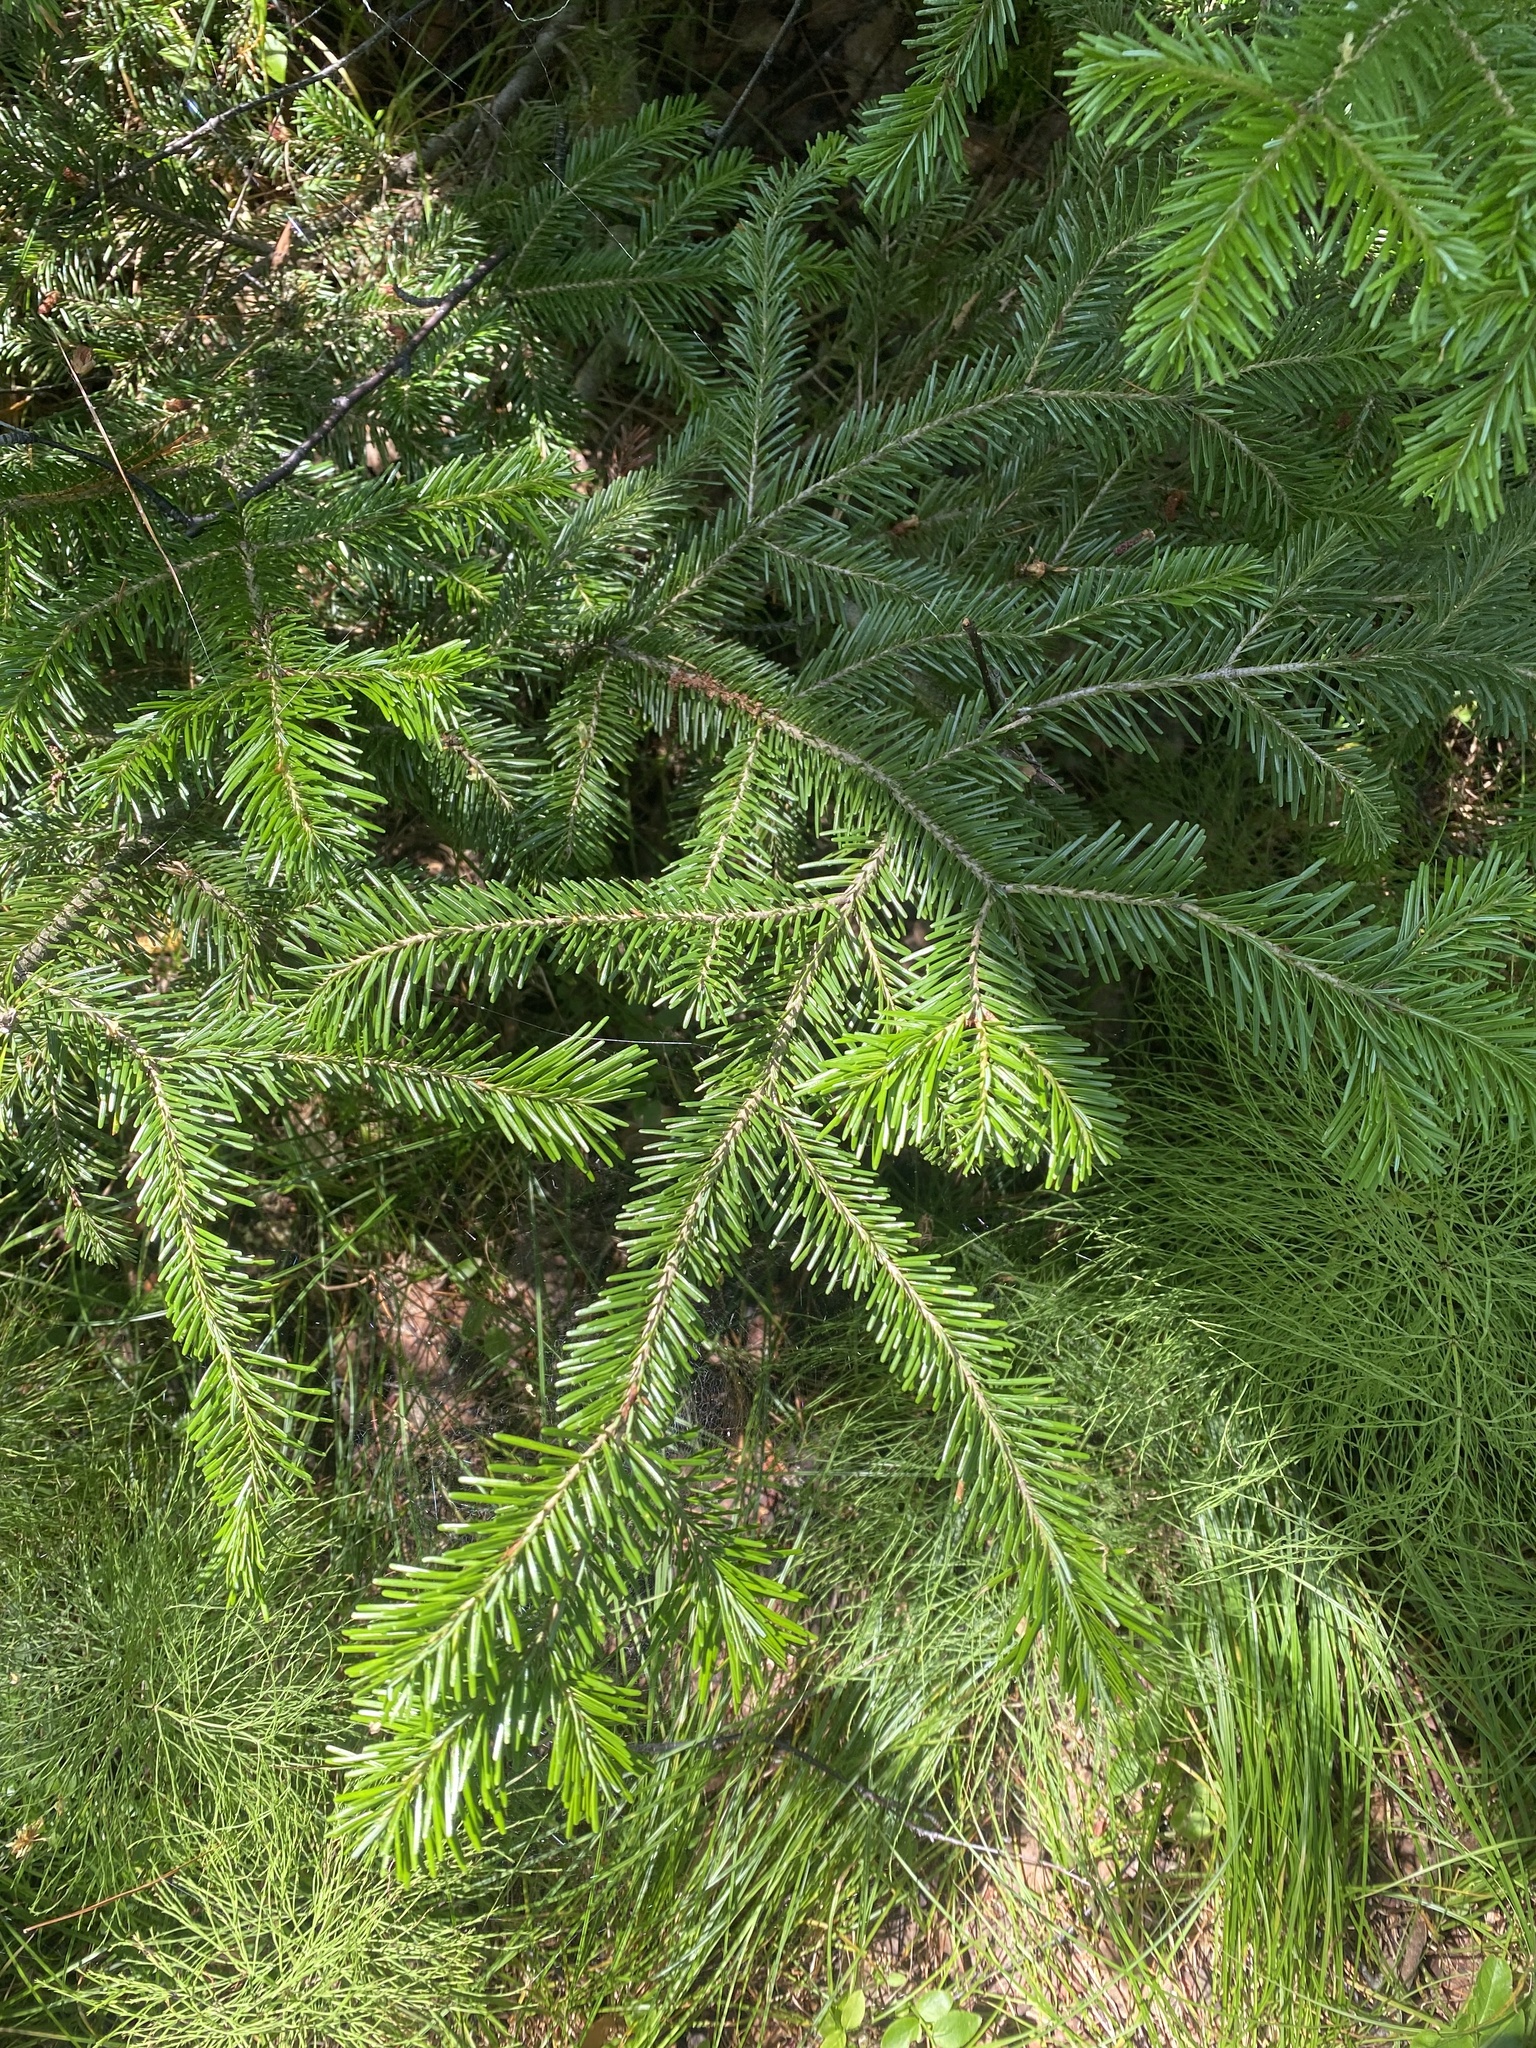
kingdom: Plantae
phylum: Tracheophyta
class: Pinopsida
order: Pinales
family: Pinaceae
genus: Abies
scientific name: Abies sibirica
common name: Siberian fir
